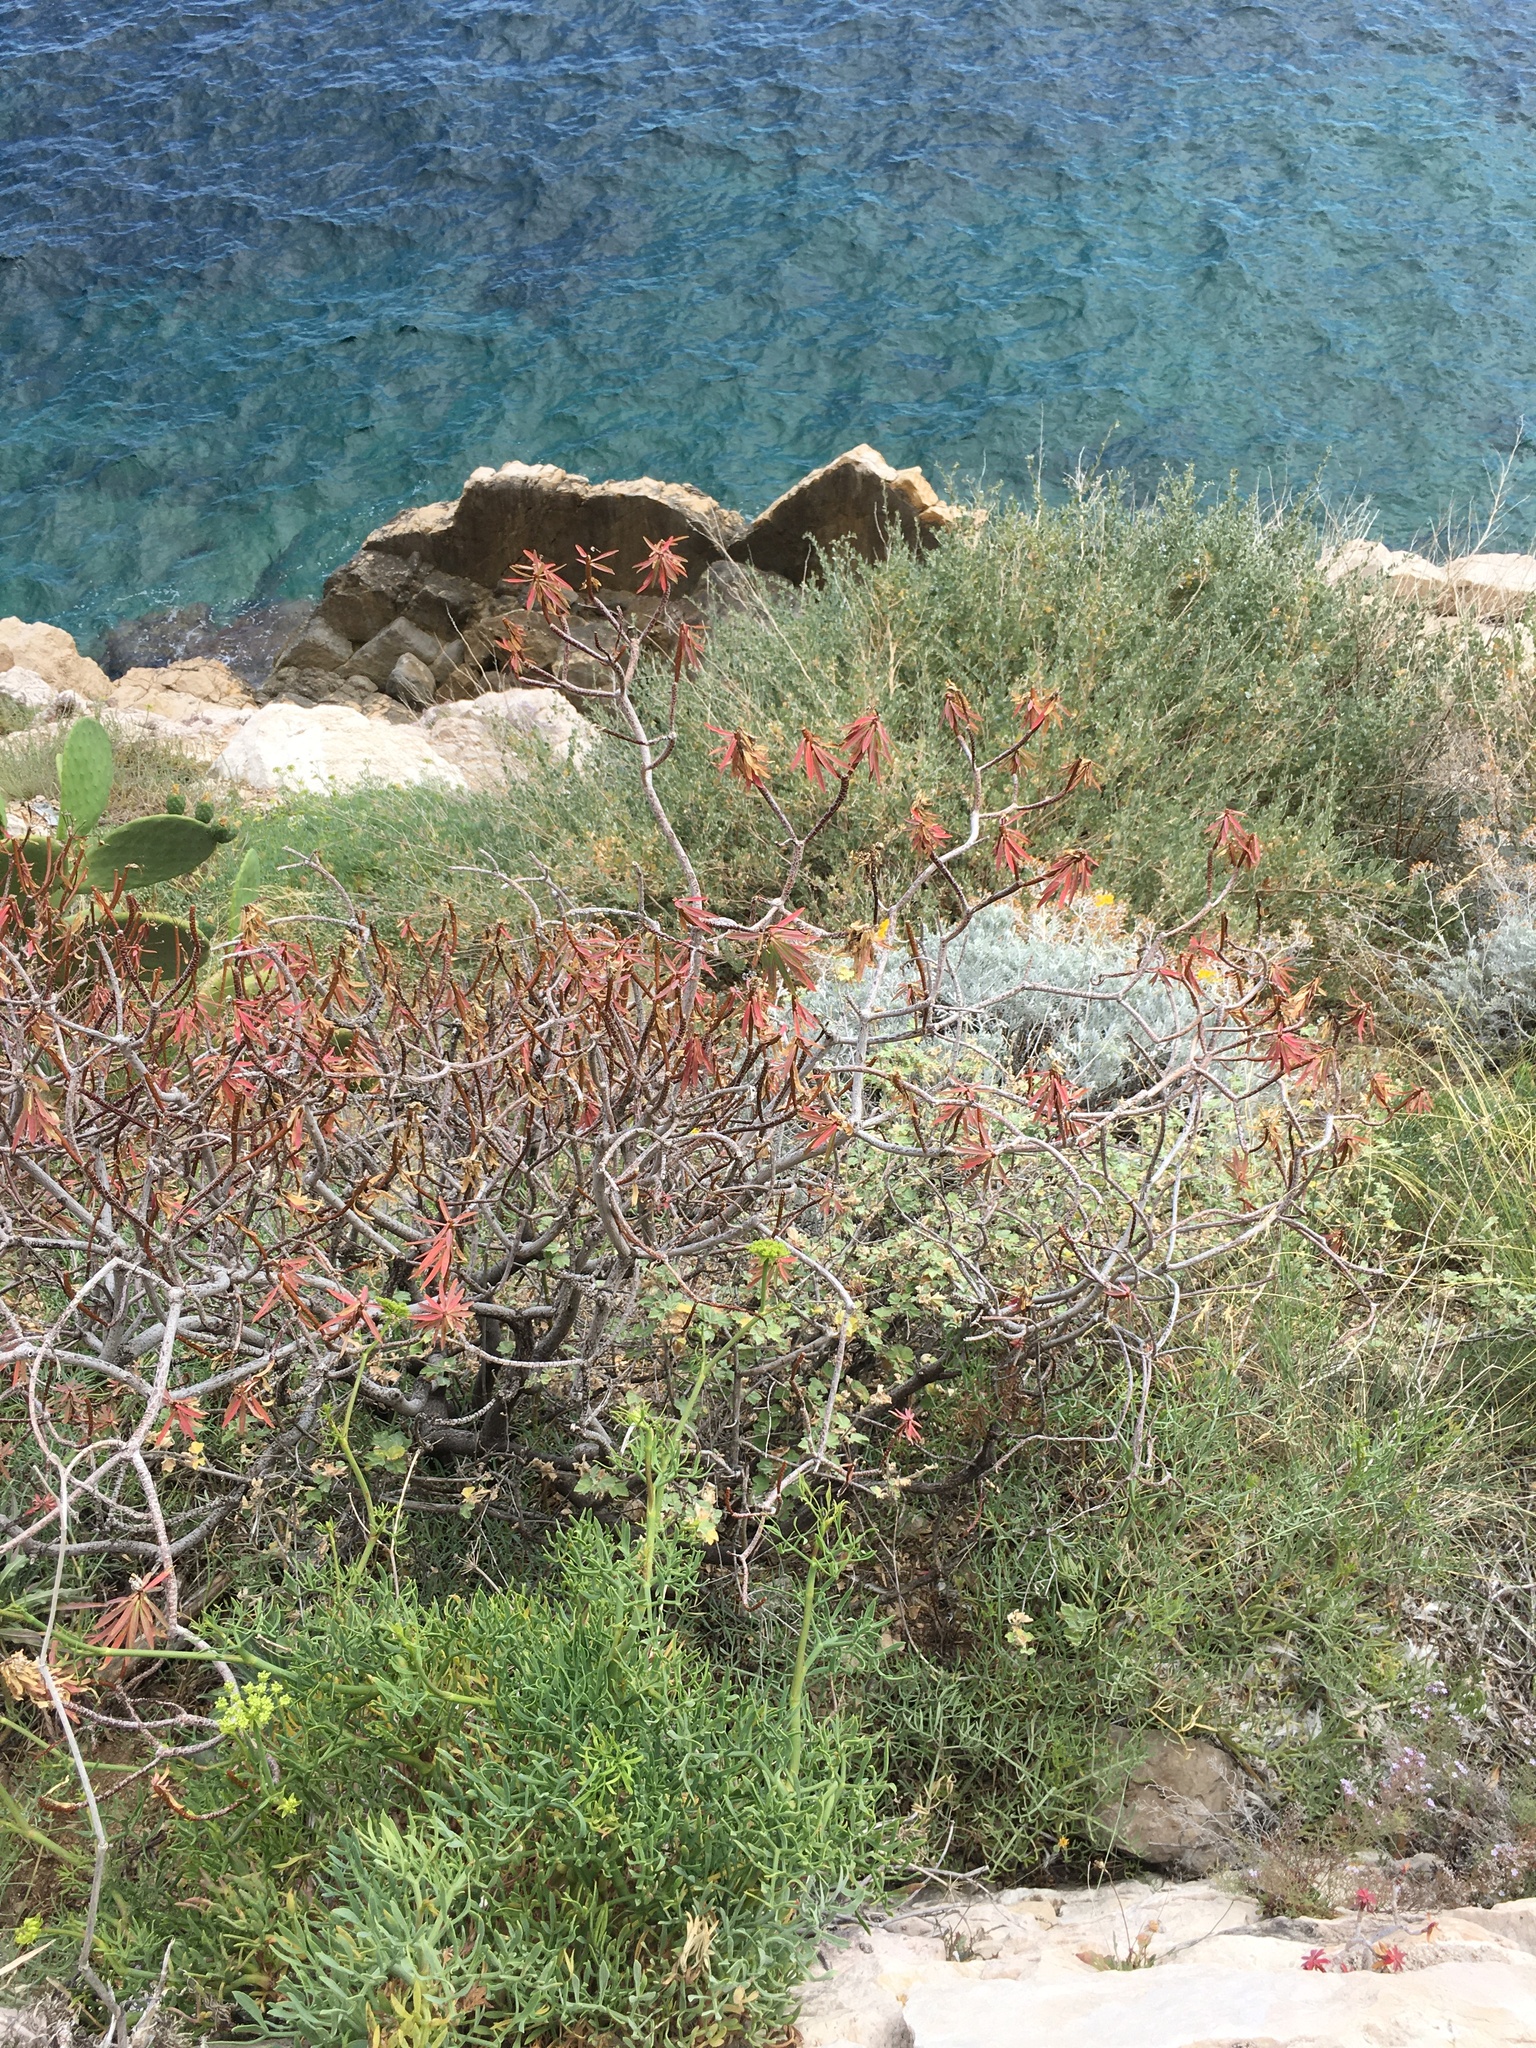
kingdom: Plantae
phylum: Tracheophyta
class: Magnoliopsida
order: Malpighiales
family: Euphorbiaceae
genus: Euphorbia
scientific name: Euphorbia dendroides
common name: Tree spurge
